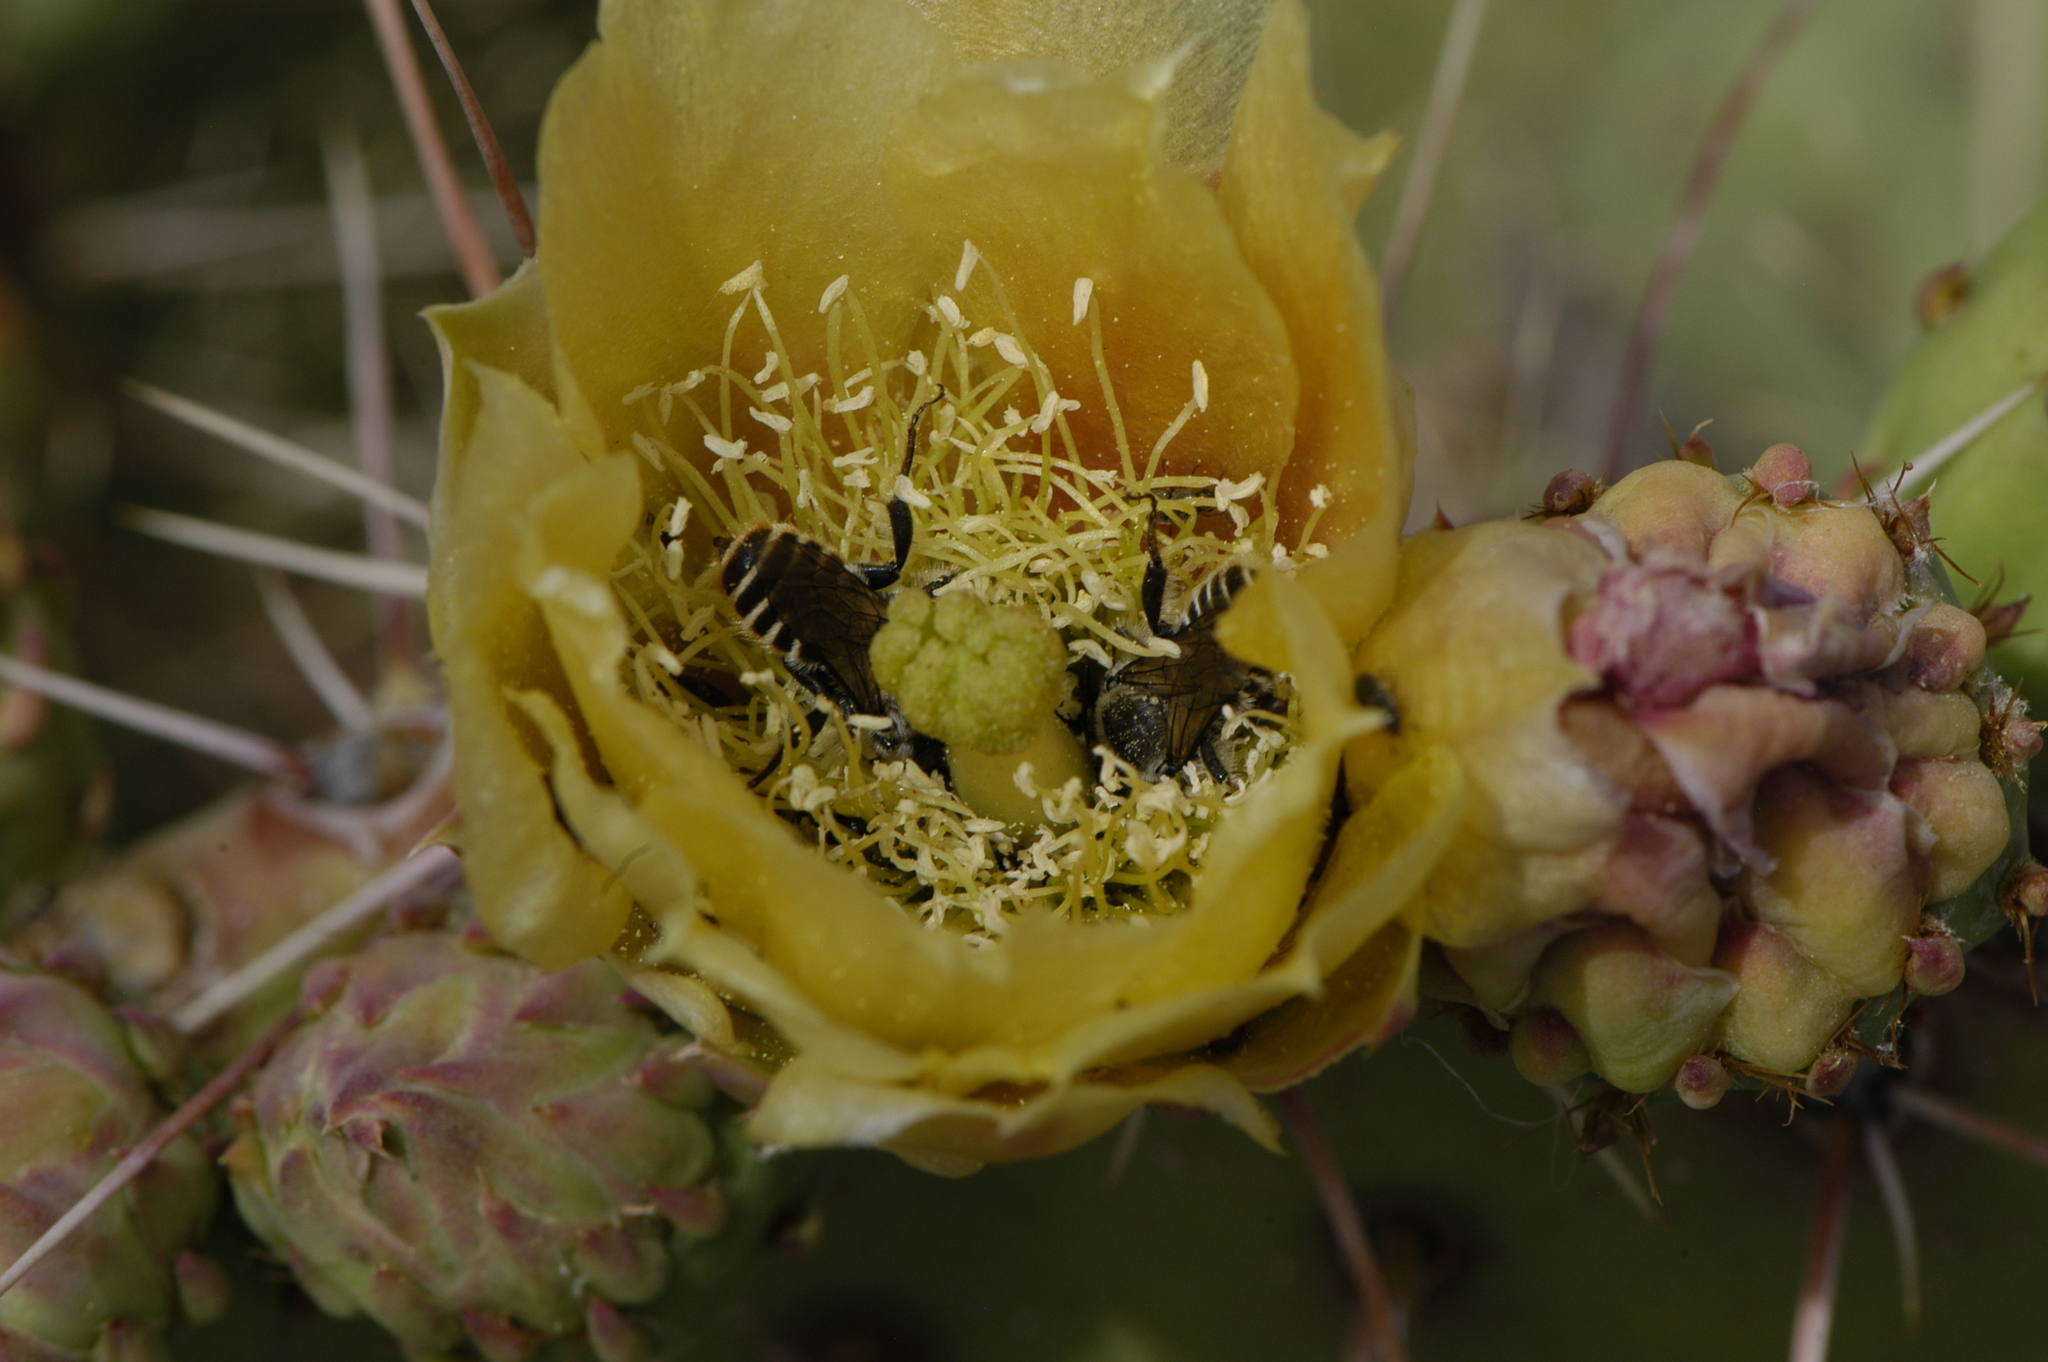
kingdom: Animalia
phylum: Arthropoda
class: Insecta
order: Hymenoptera
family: Megachilidae
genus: Lithurgopsis
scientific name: Lithurgopsis apicalis
